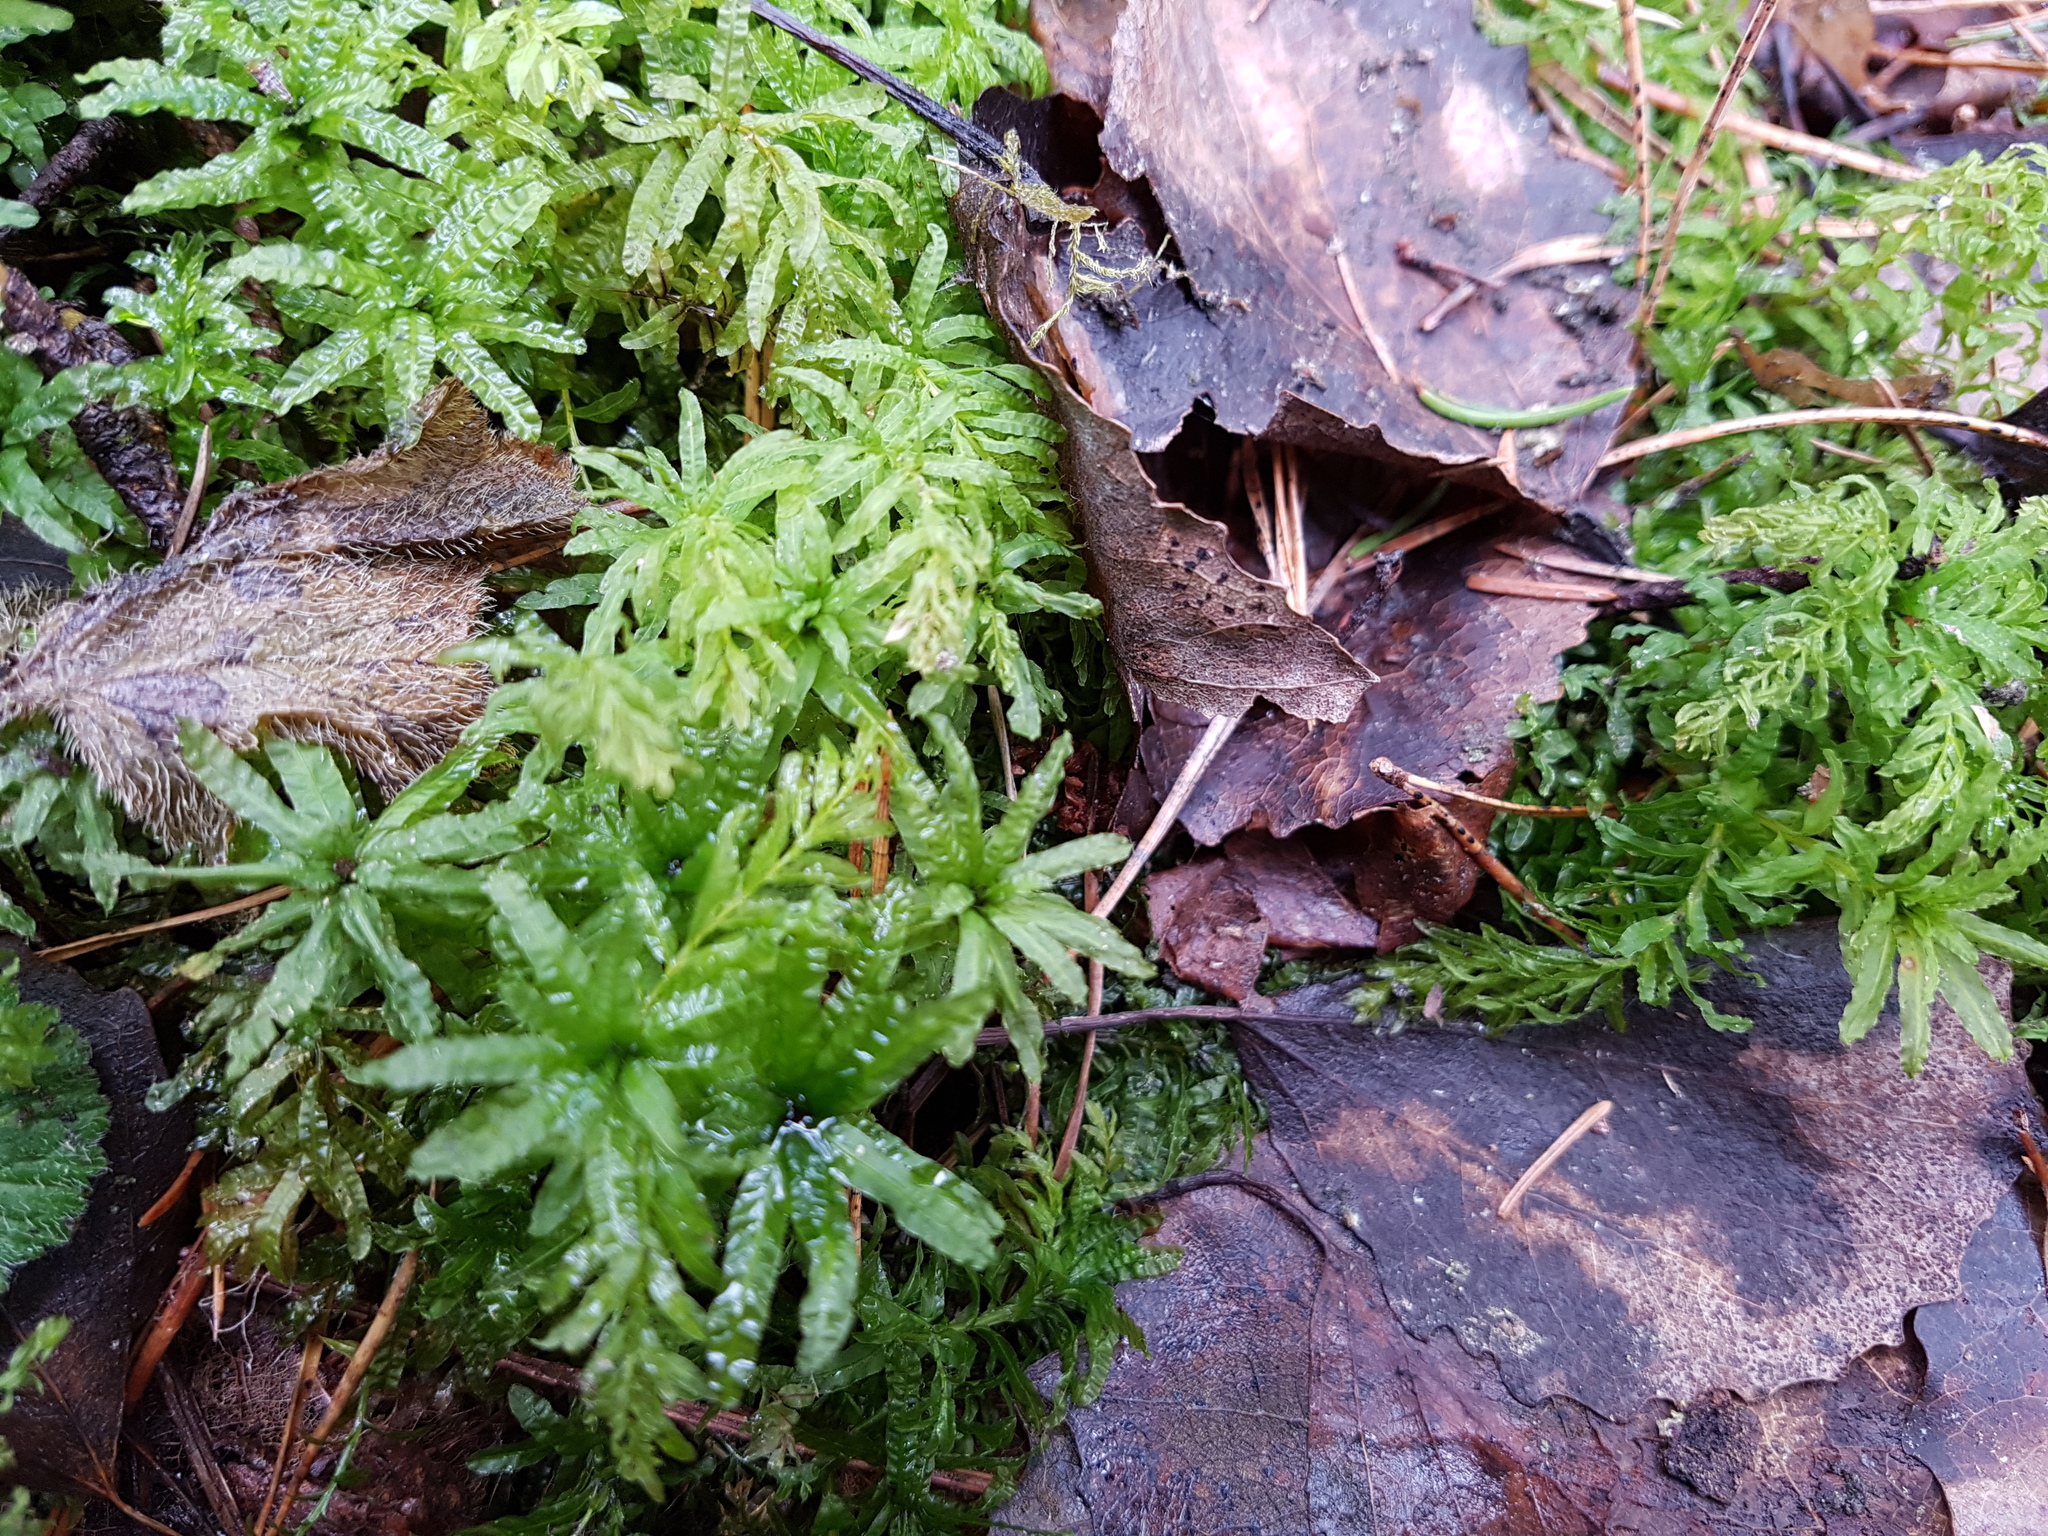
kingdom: Plantae
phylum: Bryophyta
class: Bryopsida
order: Bryales
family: Mniaceae
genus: Plagiomnium
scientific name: Plagiomnium undulatum
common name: Hart's-tongue thyme-moss
